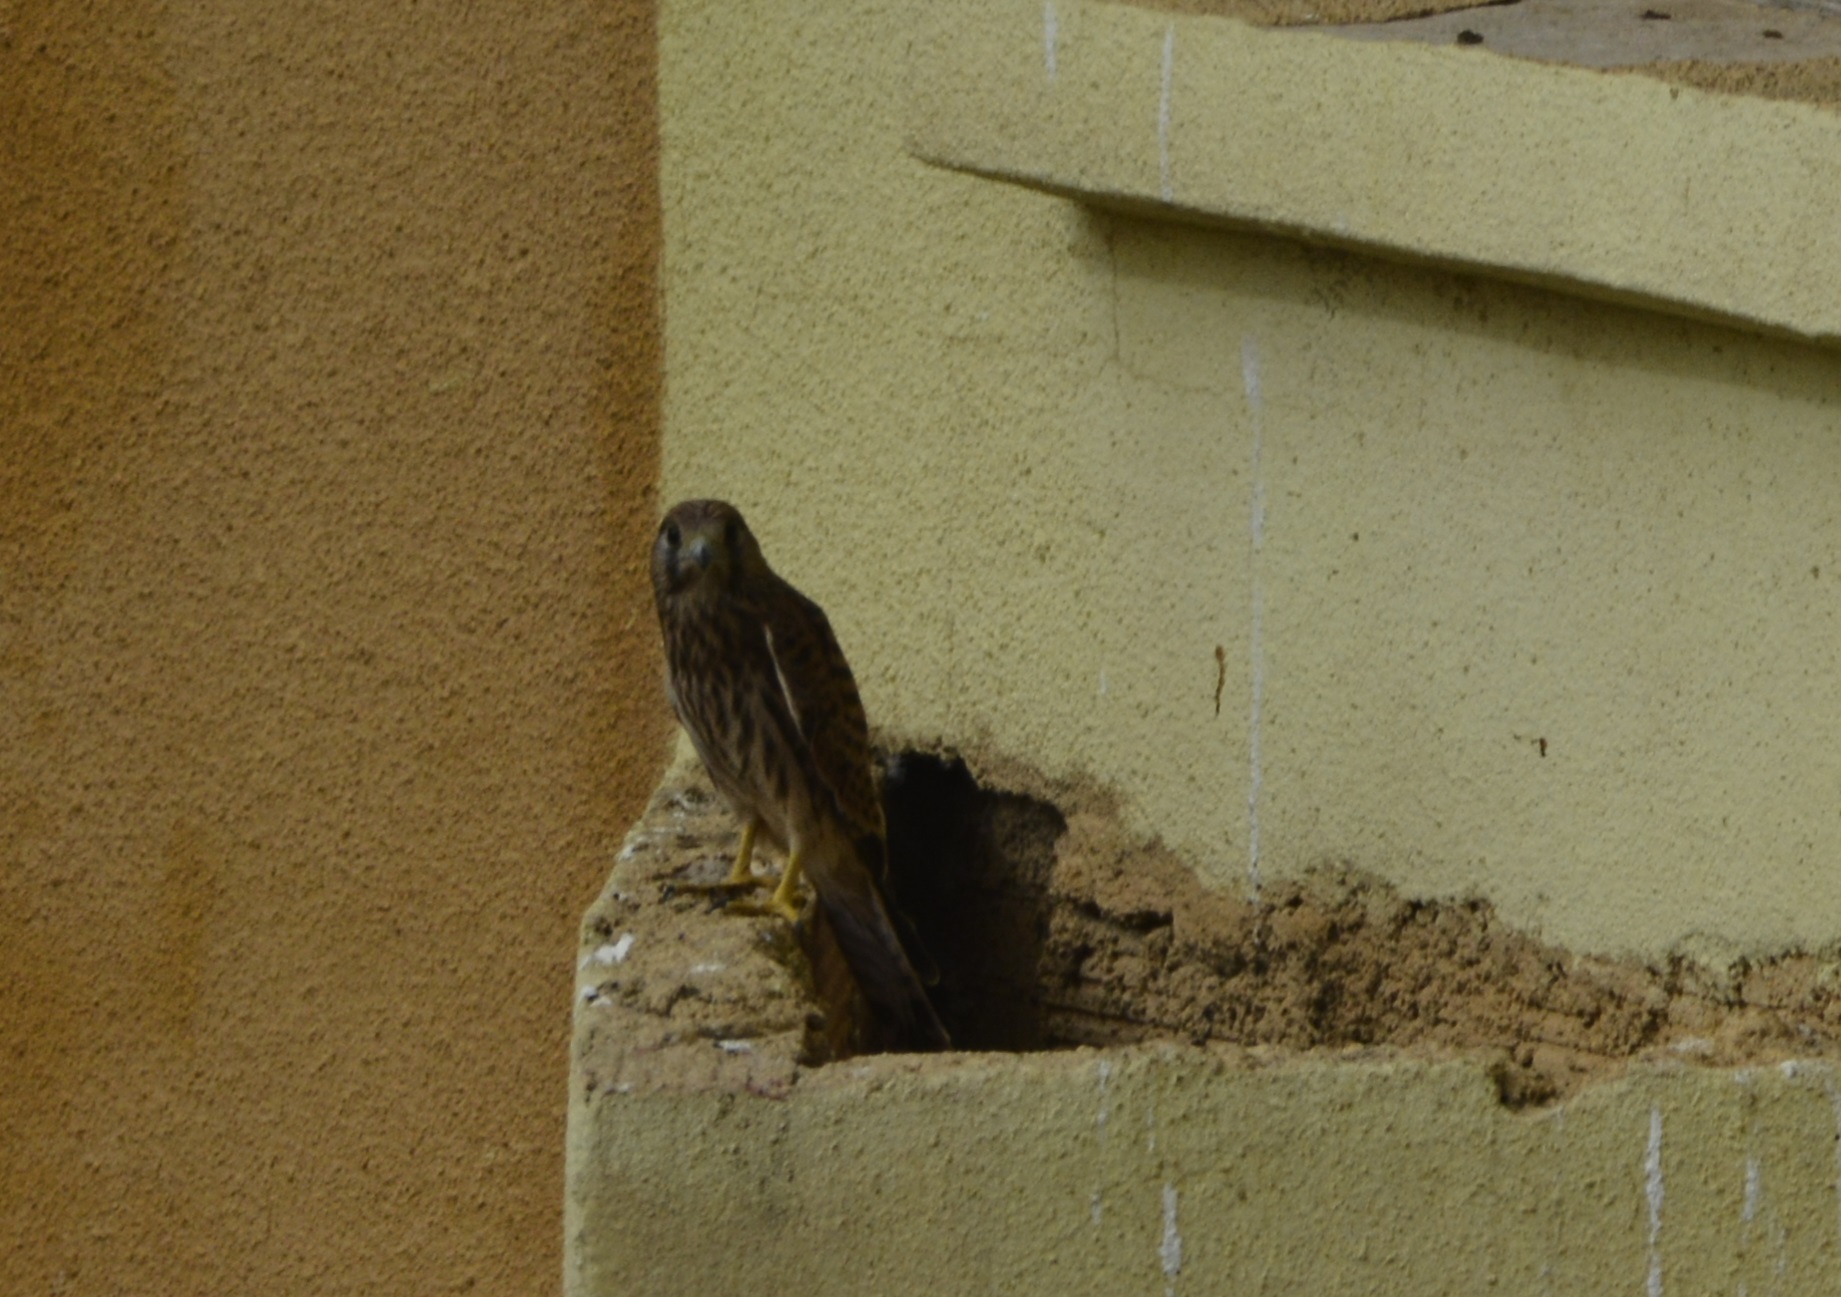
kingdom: Animalia
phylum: Chordata
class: Aves
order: Falconiformes
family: Falconidae
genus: Falco
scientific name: Falco tinnunculus
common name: Common kestrel
